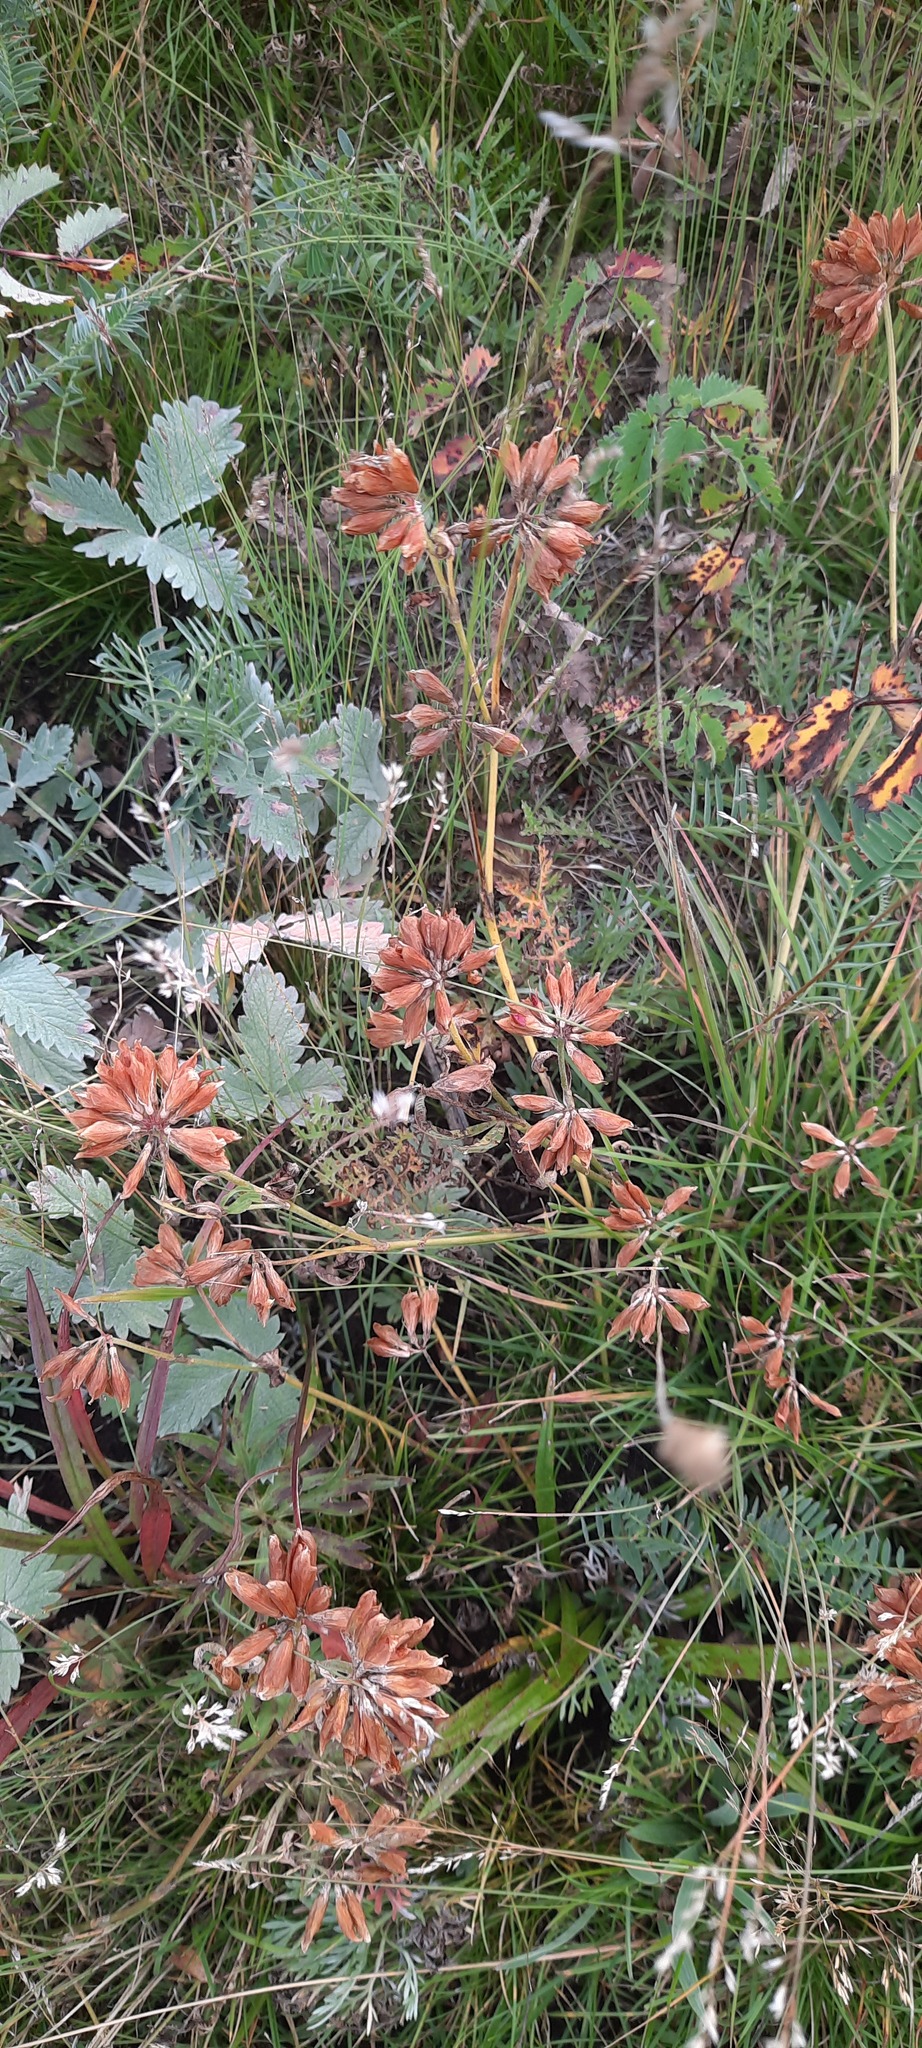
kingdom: Plantae
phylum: Tracheophyta
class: Magnoliopsida
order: Fabales
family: Fabaceae
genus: Trifolium
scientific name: Trifolium lupinaster
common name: Lupine clover
